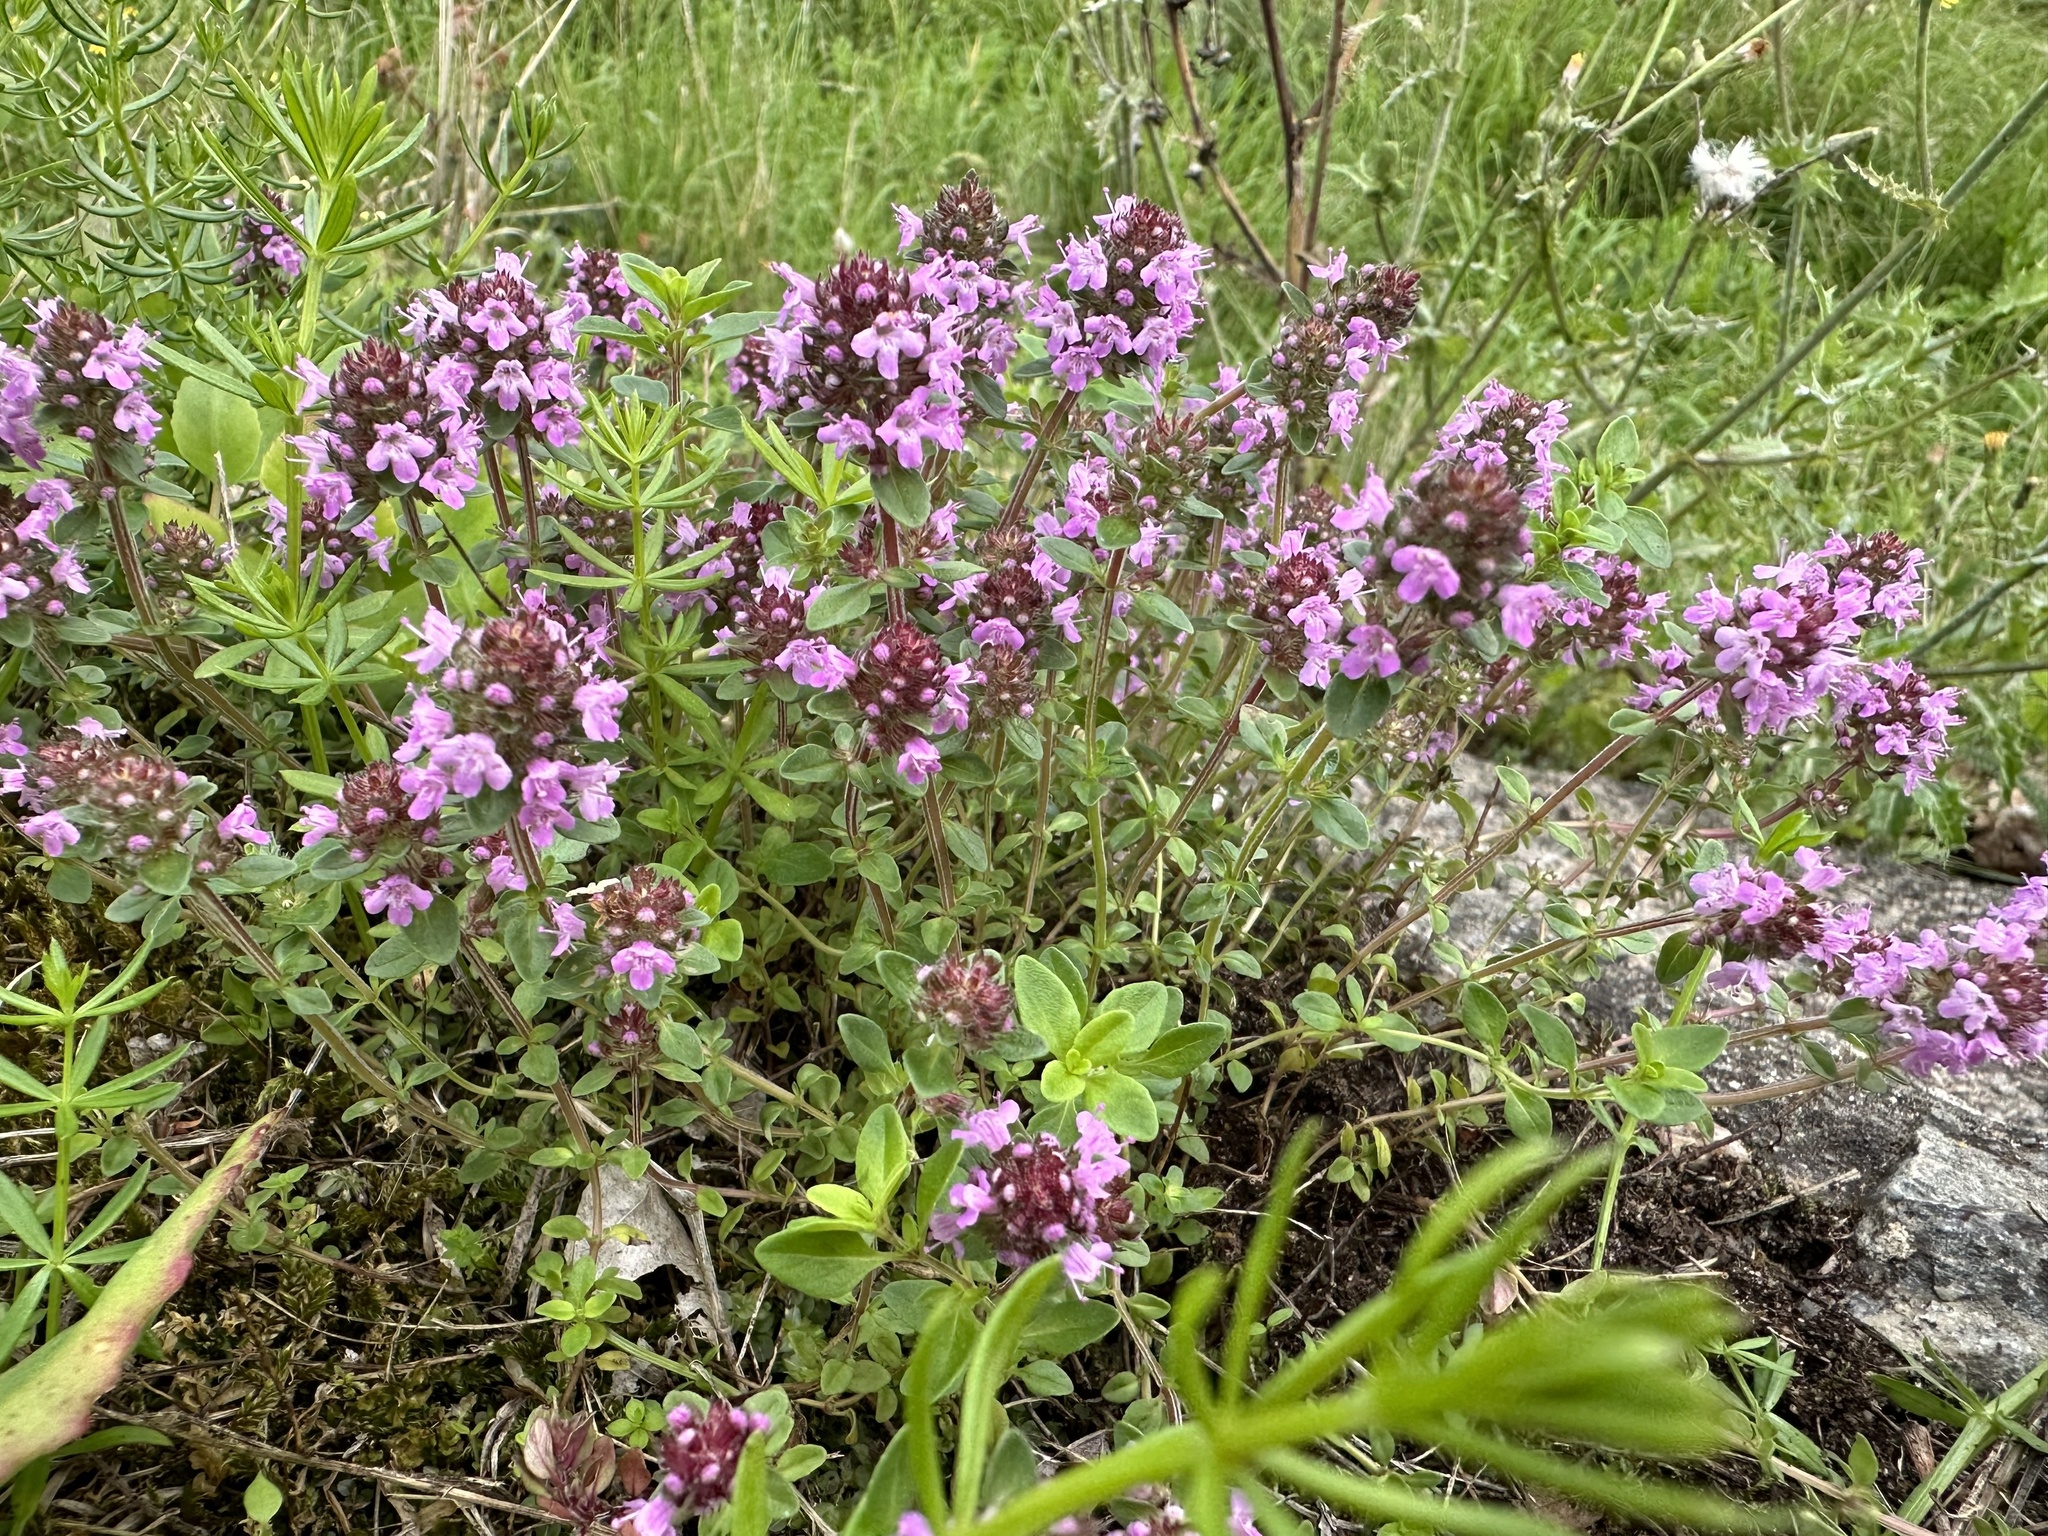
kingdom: Plantae
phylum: Tracheophyta
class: Magnoliopsida
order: Lamiales
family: Lamiaceae
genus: Thymus
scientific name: Thymus pulegioides
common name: Large thyme
